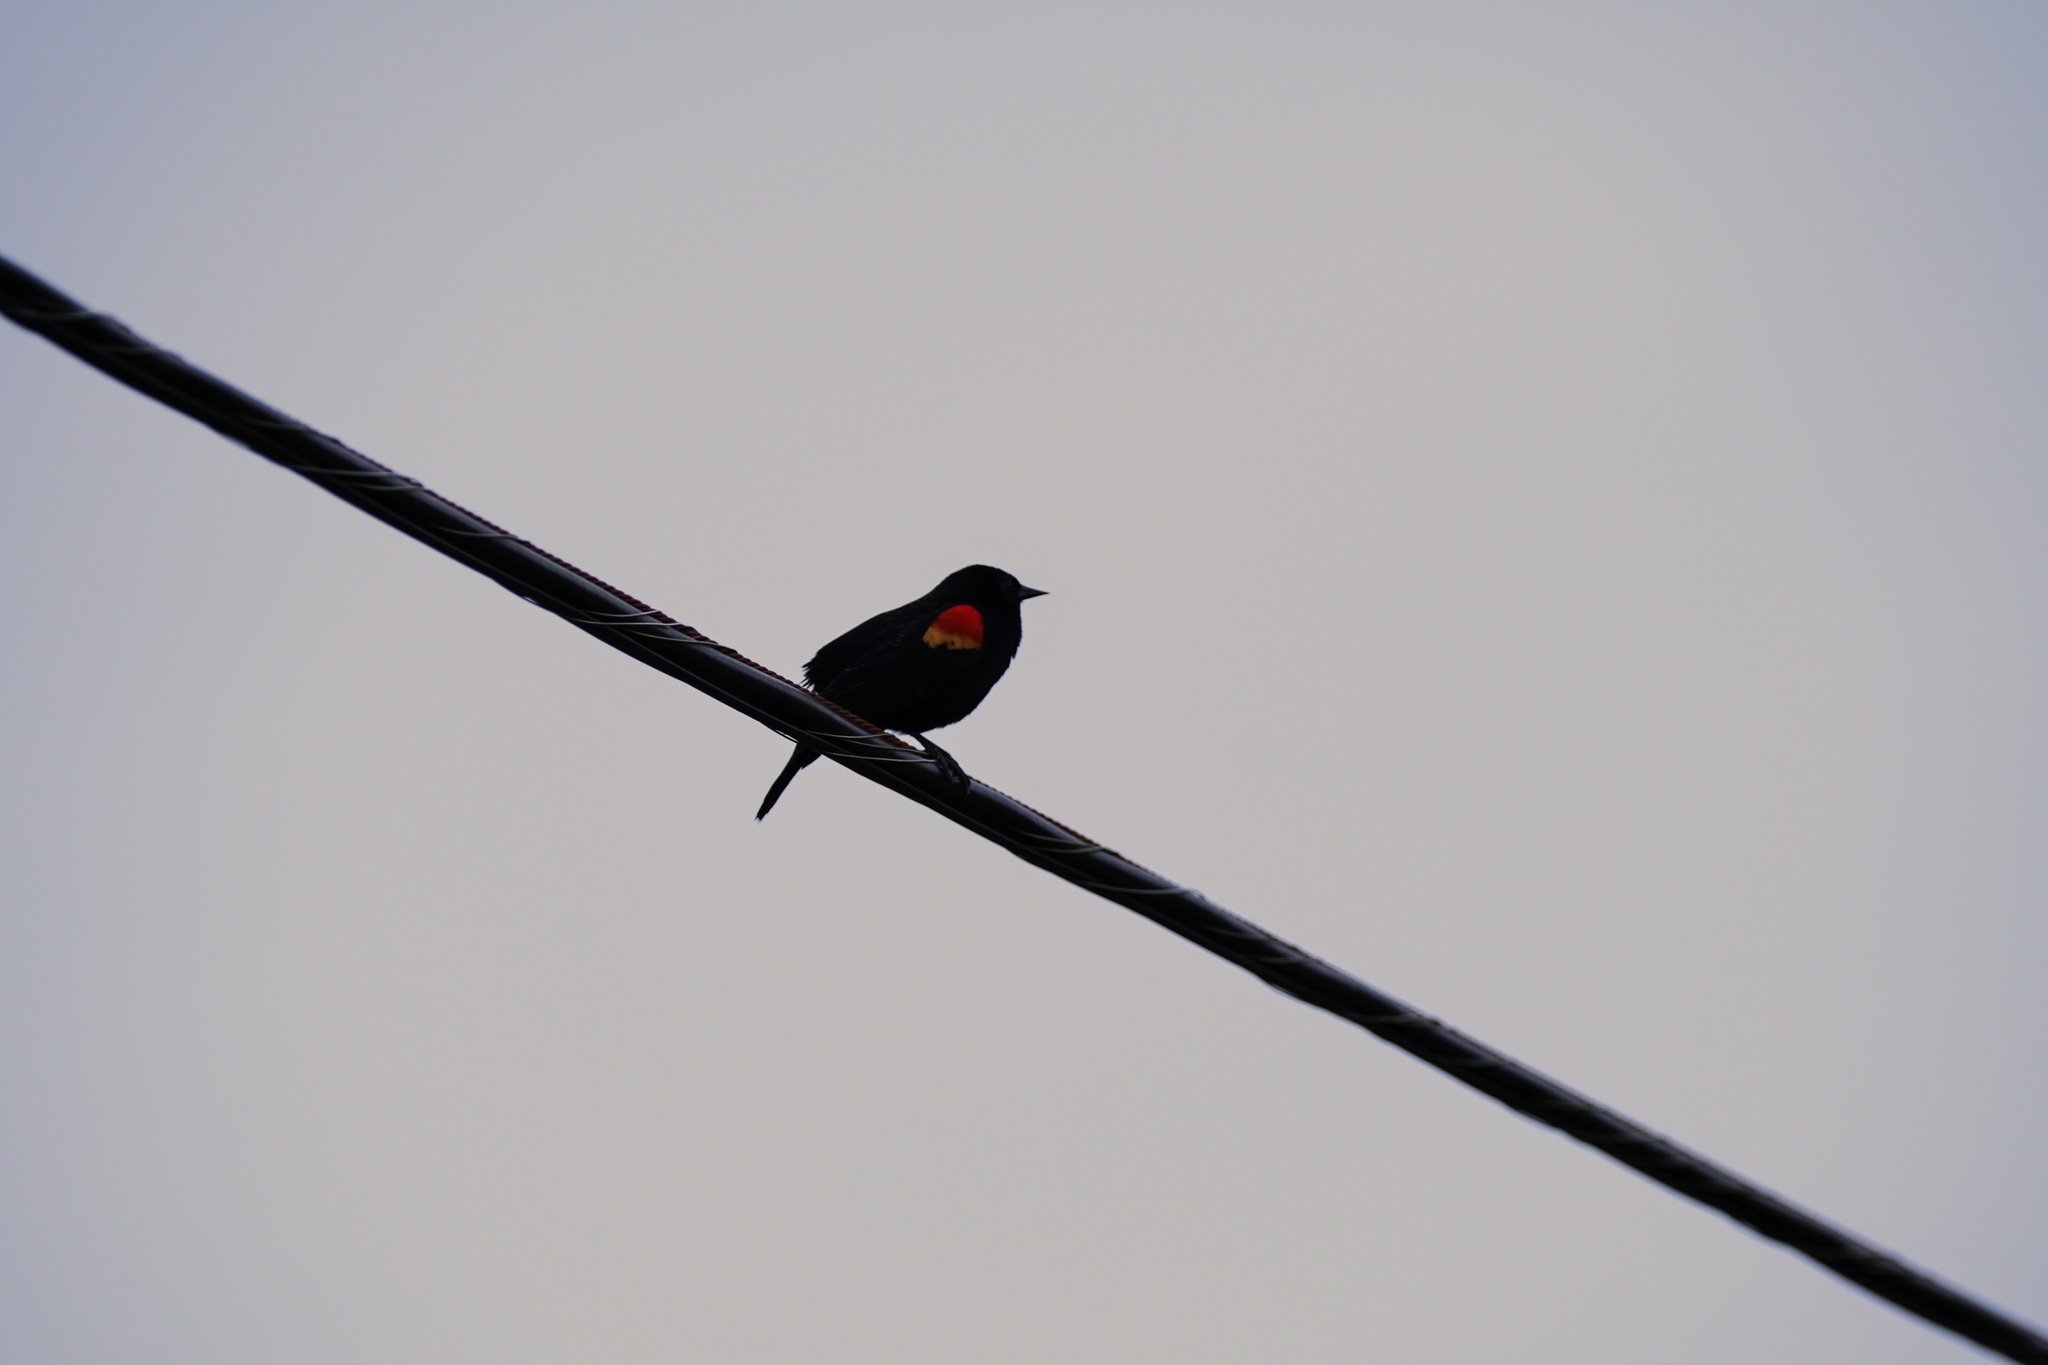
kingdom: Animalia
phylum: Chordata
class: Aves
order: Passeriformes
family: Icteridae
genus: Agelaius
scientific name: Agelaius phoeniceus
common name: Red-winged blackbird
